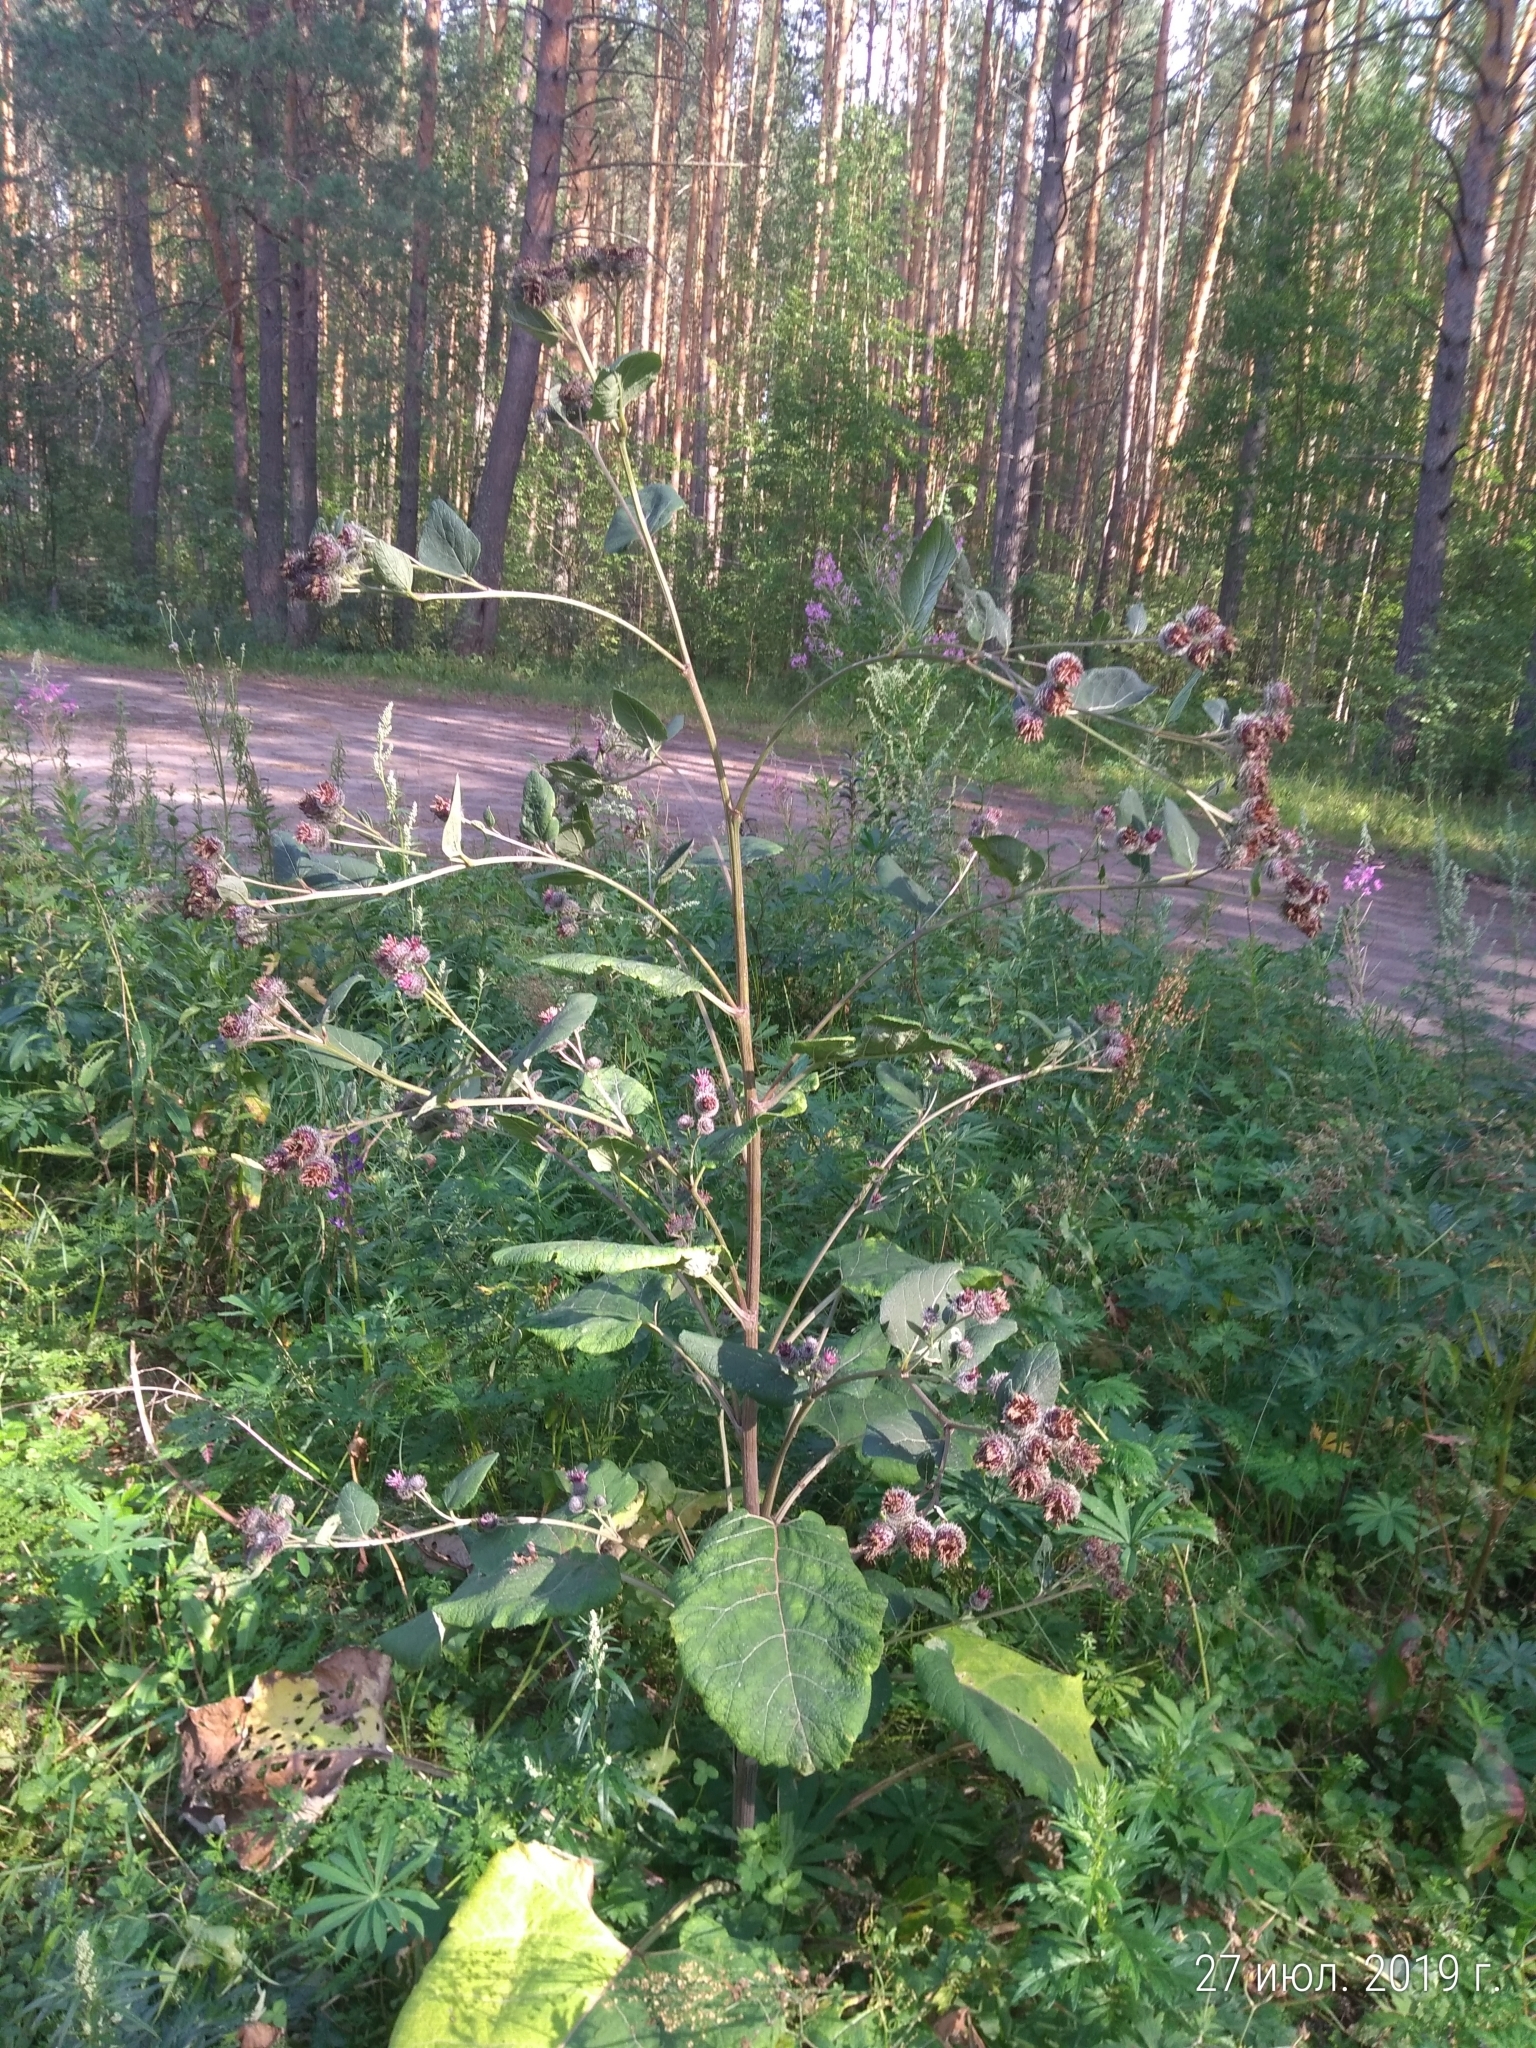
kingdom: Plantae
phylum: Tracheophyta
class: Magnoliopsida
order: Asterales
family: Asteraceae
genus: Arctium
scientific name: Arctium tomentosum
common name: Woolly burdock
